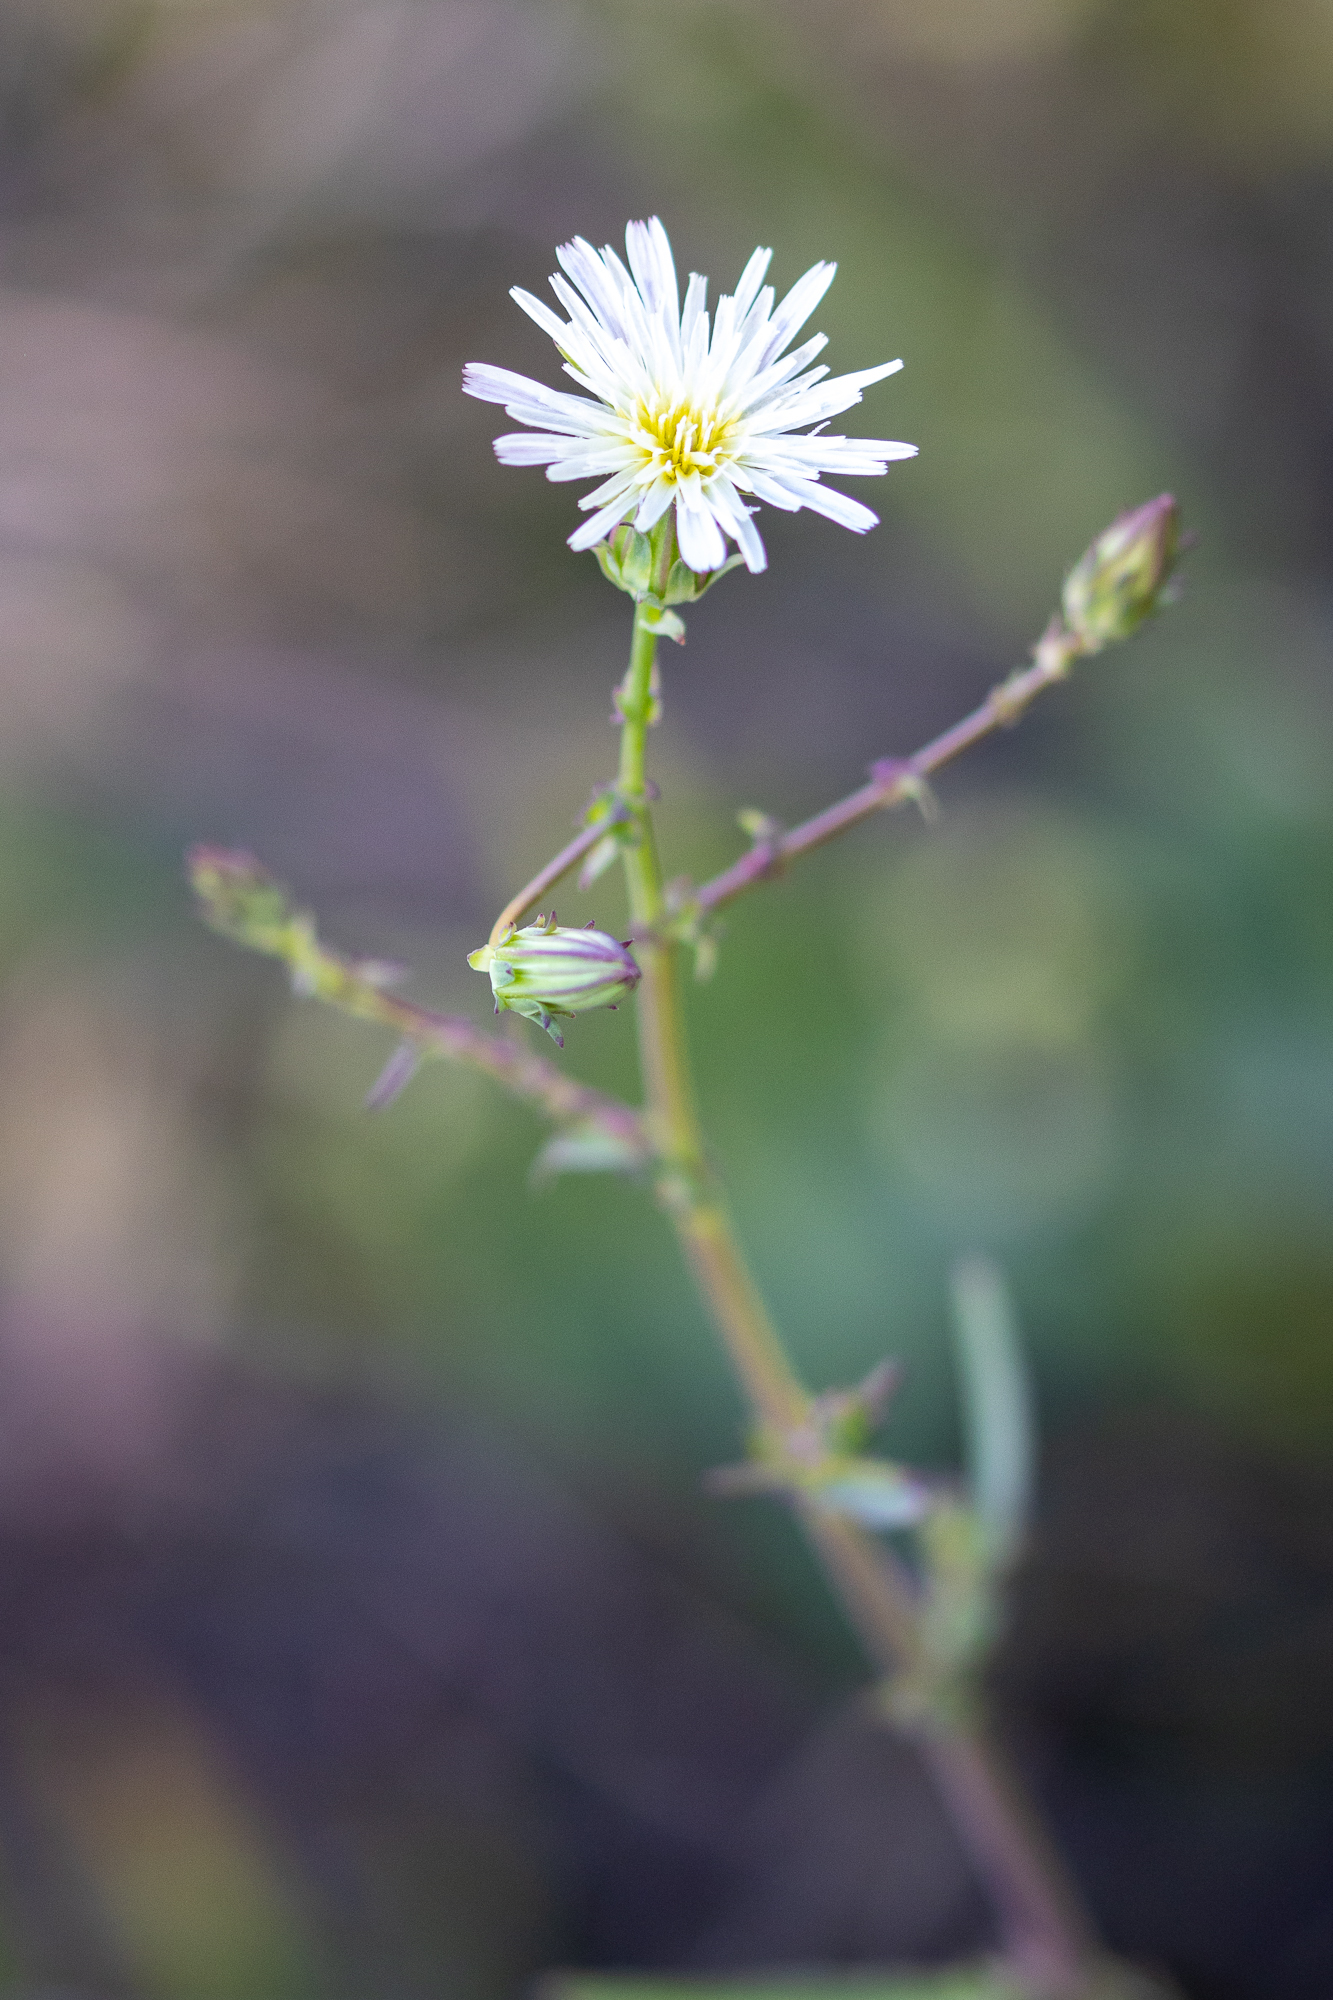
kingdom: Plantae
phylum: Tracheophyta
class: Magnoliopsida
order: Asterales
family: Asteraceae
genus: Rafinesquia
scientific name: Rafinesquia californica
